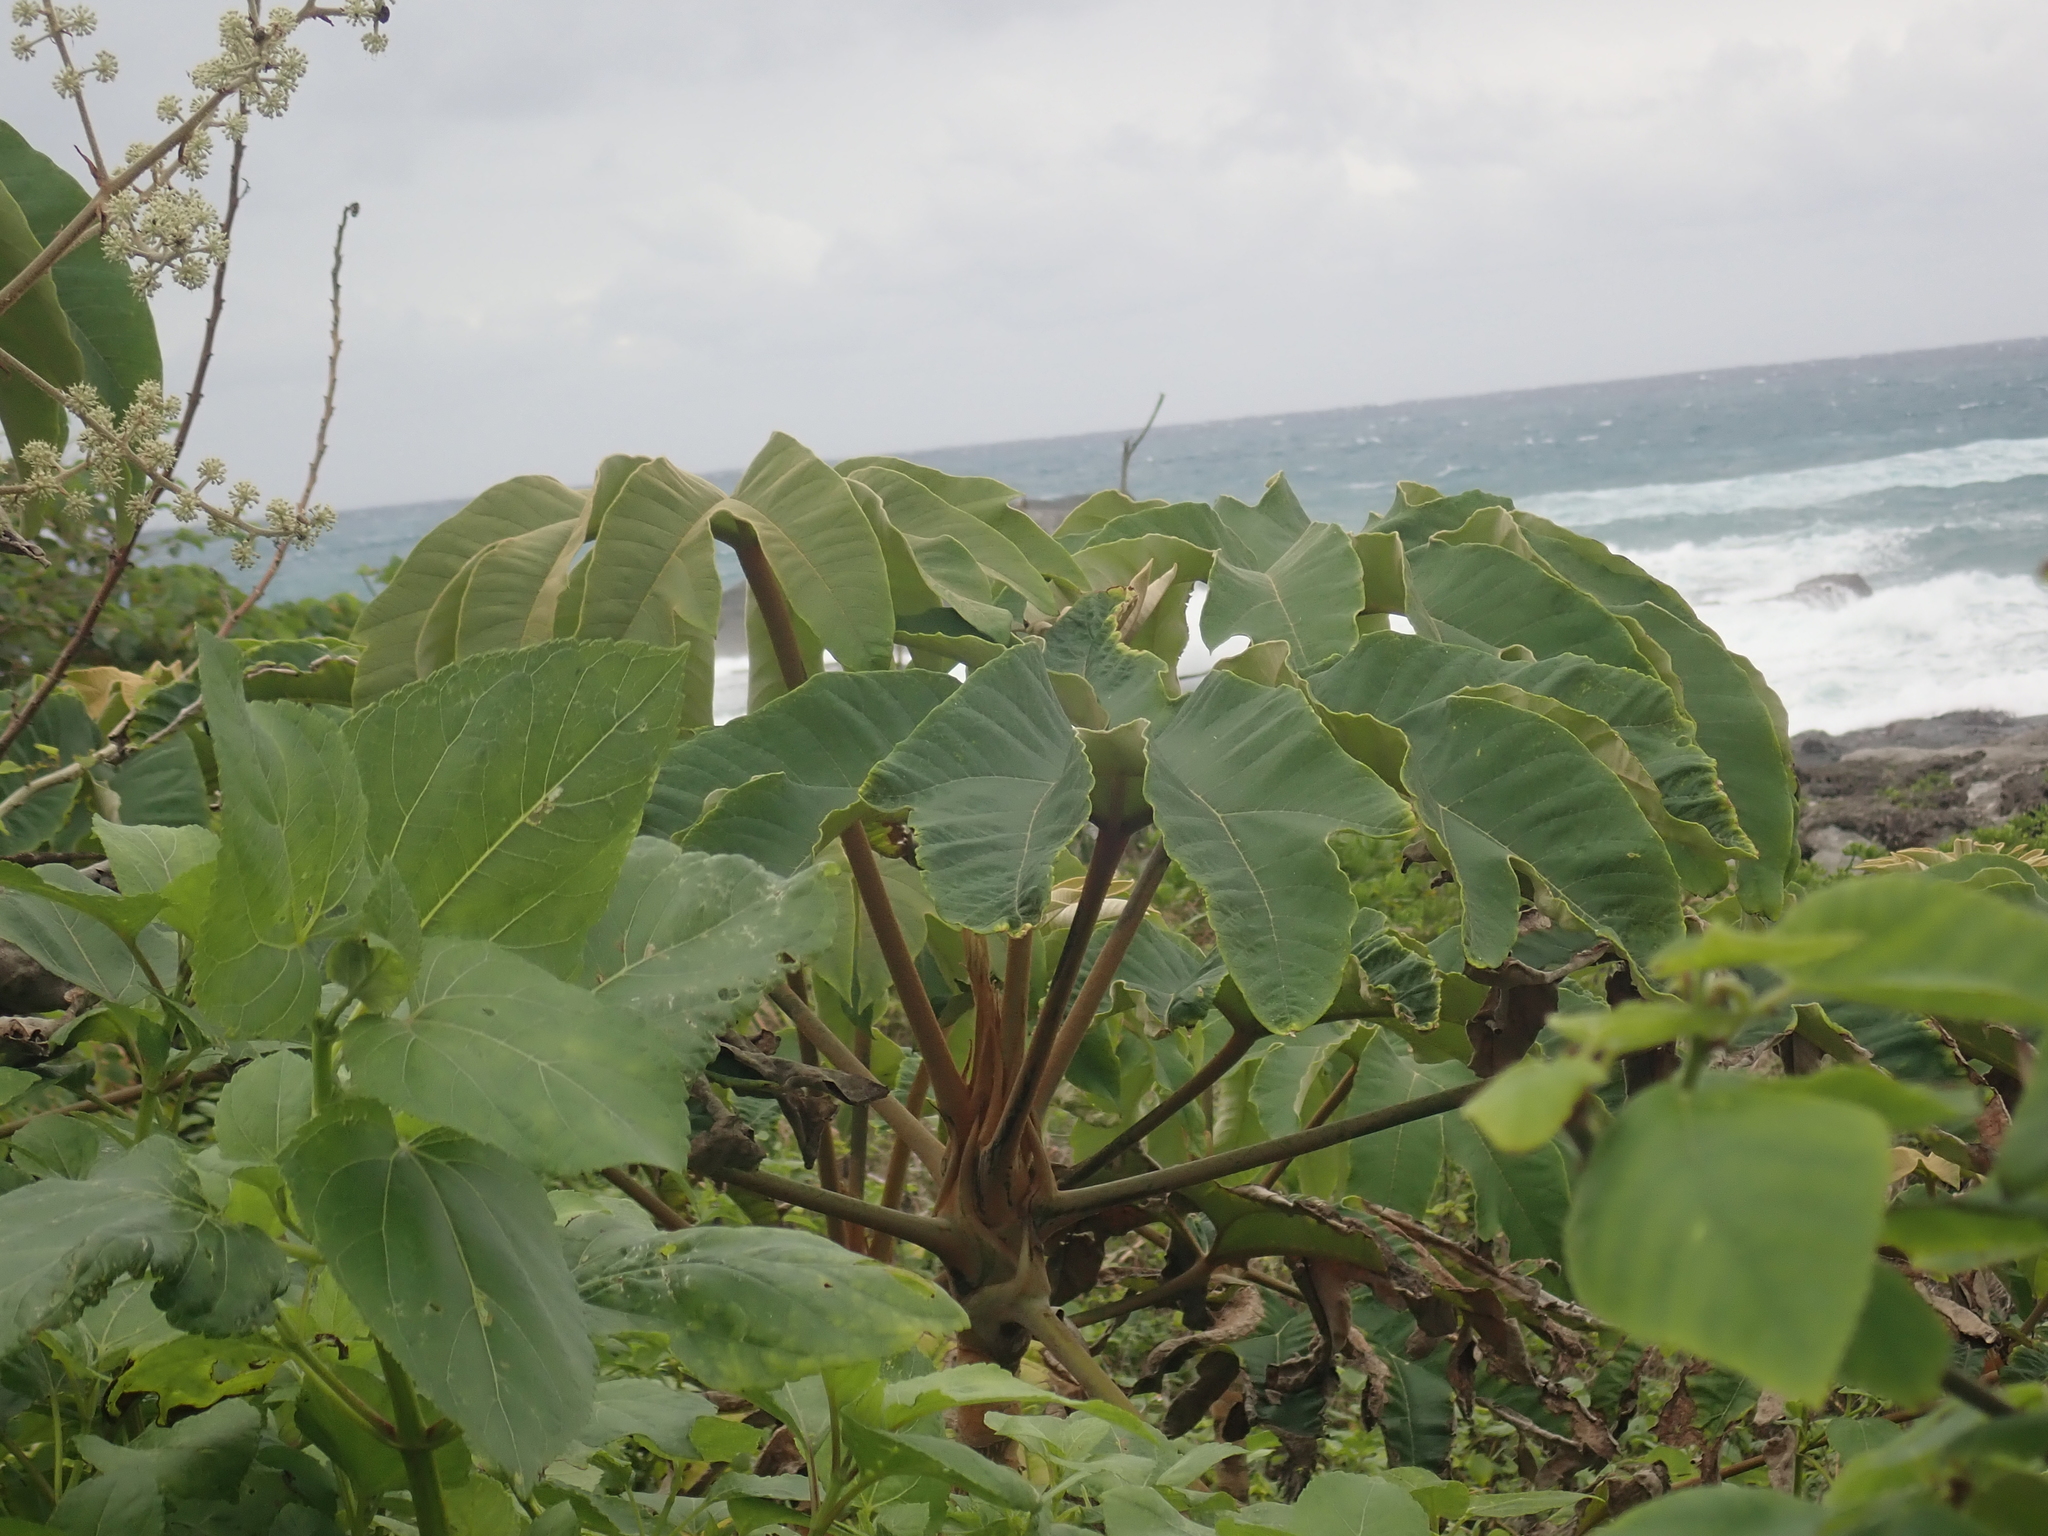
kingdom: Plantae
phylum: Tracheophyta
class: Magnoliopsida
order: Apiales
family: Araliaceae
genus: Tetrapanax
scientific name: Tetrapanax papyrifer
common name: Rice-paper plant
